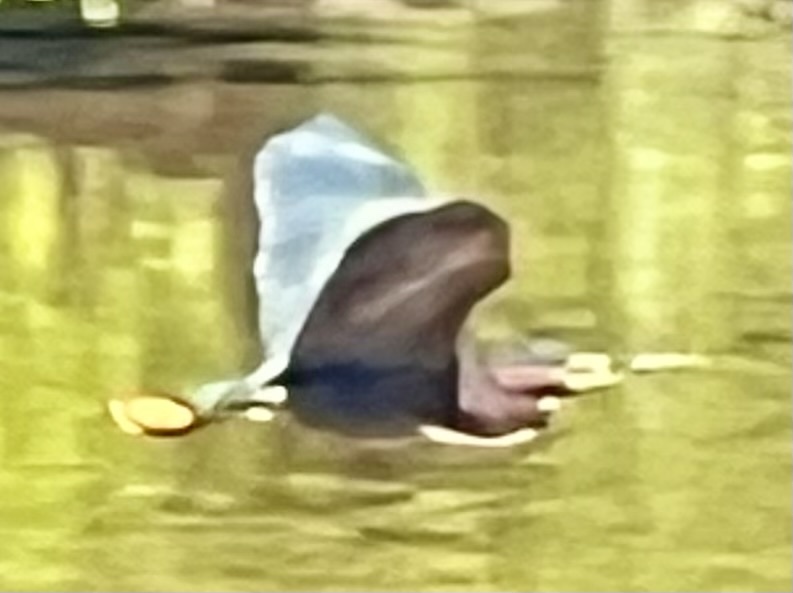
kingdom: Animalia
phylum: Chordata
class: Aves
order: Pelecaniformes
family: Ardeidae
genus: Butorides
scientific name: Butorides virescens
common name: Green heron
